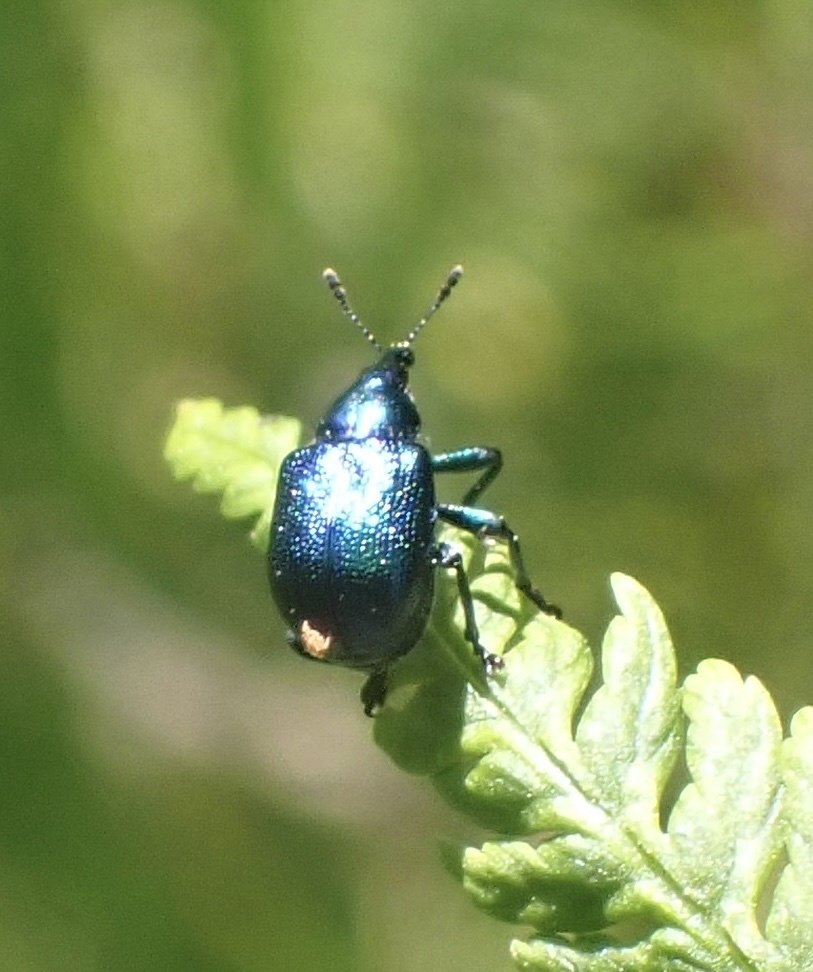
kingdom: Animalia
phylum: Arthropoda
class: Insecta
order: Coleoptera
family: Attelabidae
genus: Byctiscus
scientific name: Byctiscus betulae
